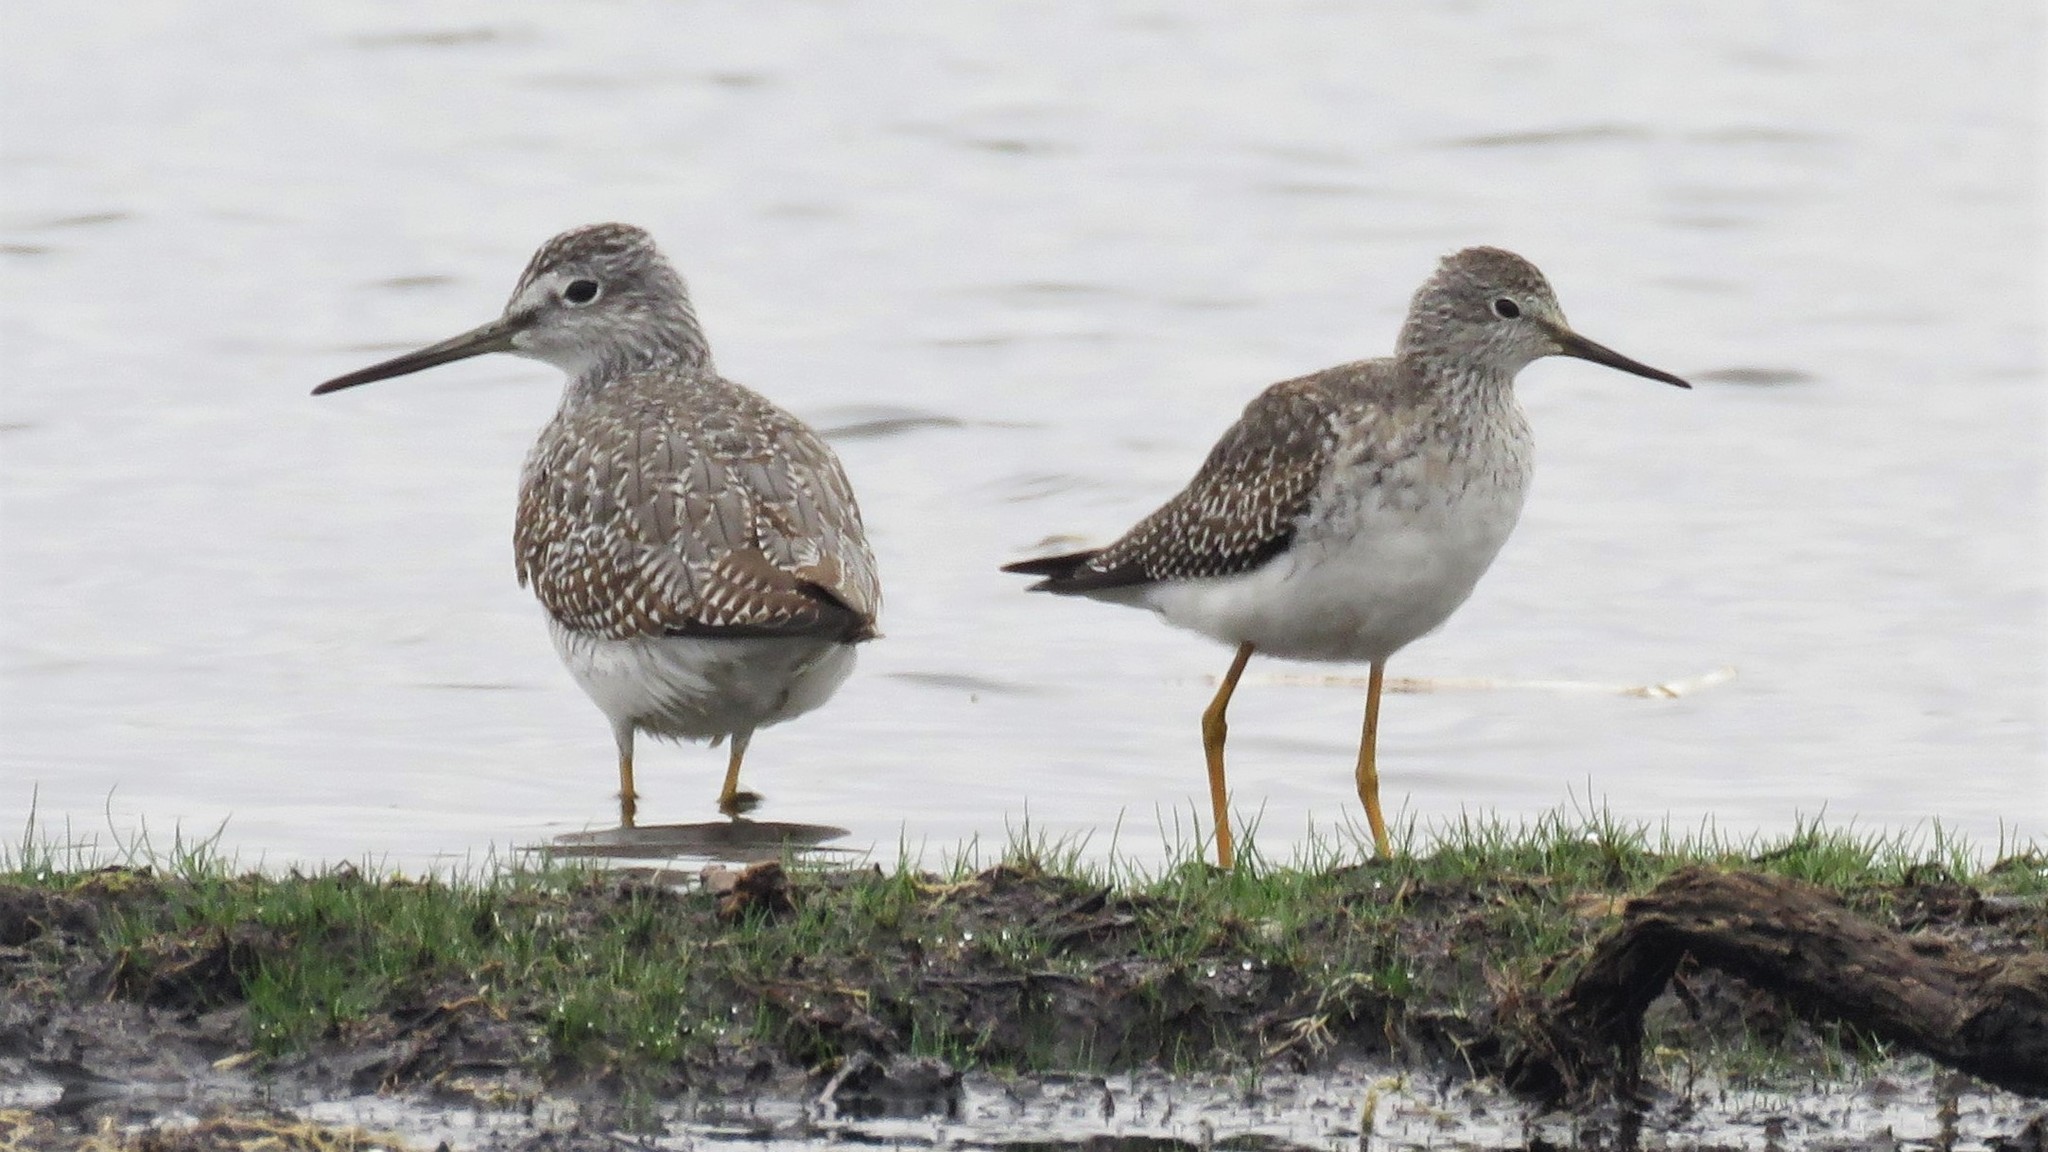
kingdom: Animalia
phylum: Chordata
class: Aves
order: Charadriiformes
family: Scolopacidae
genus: Tringa
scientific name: Tringa melanoleuca
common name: Greater yellowlegs
